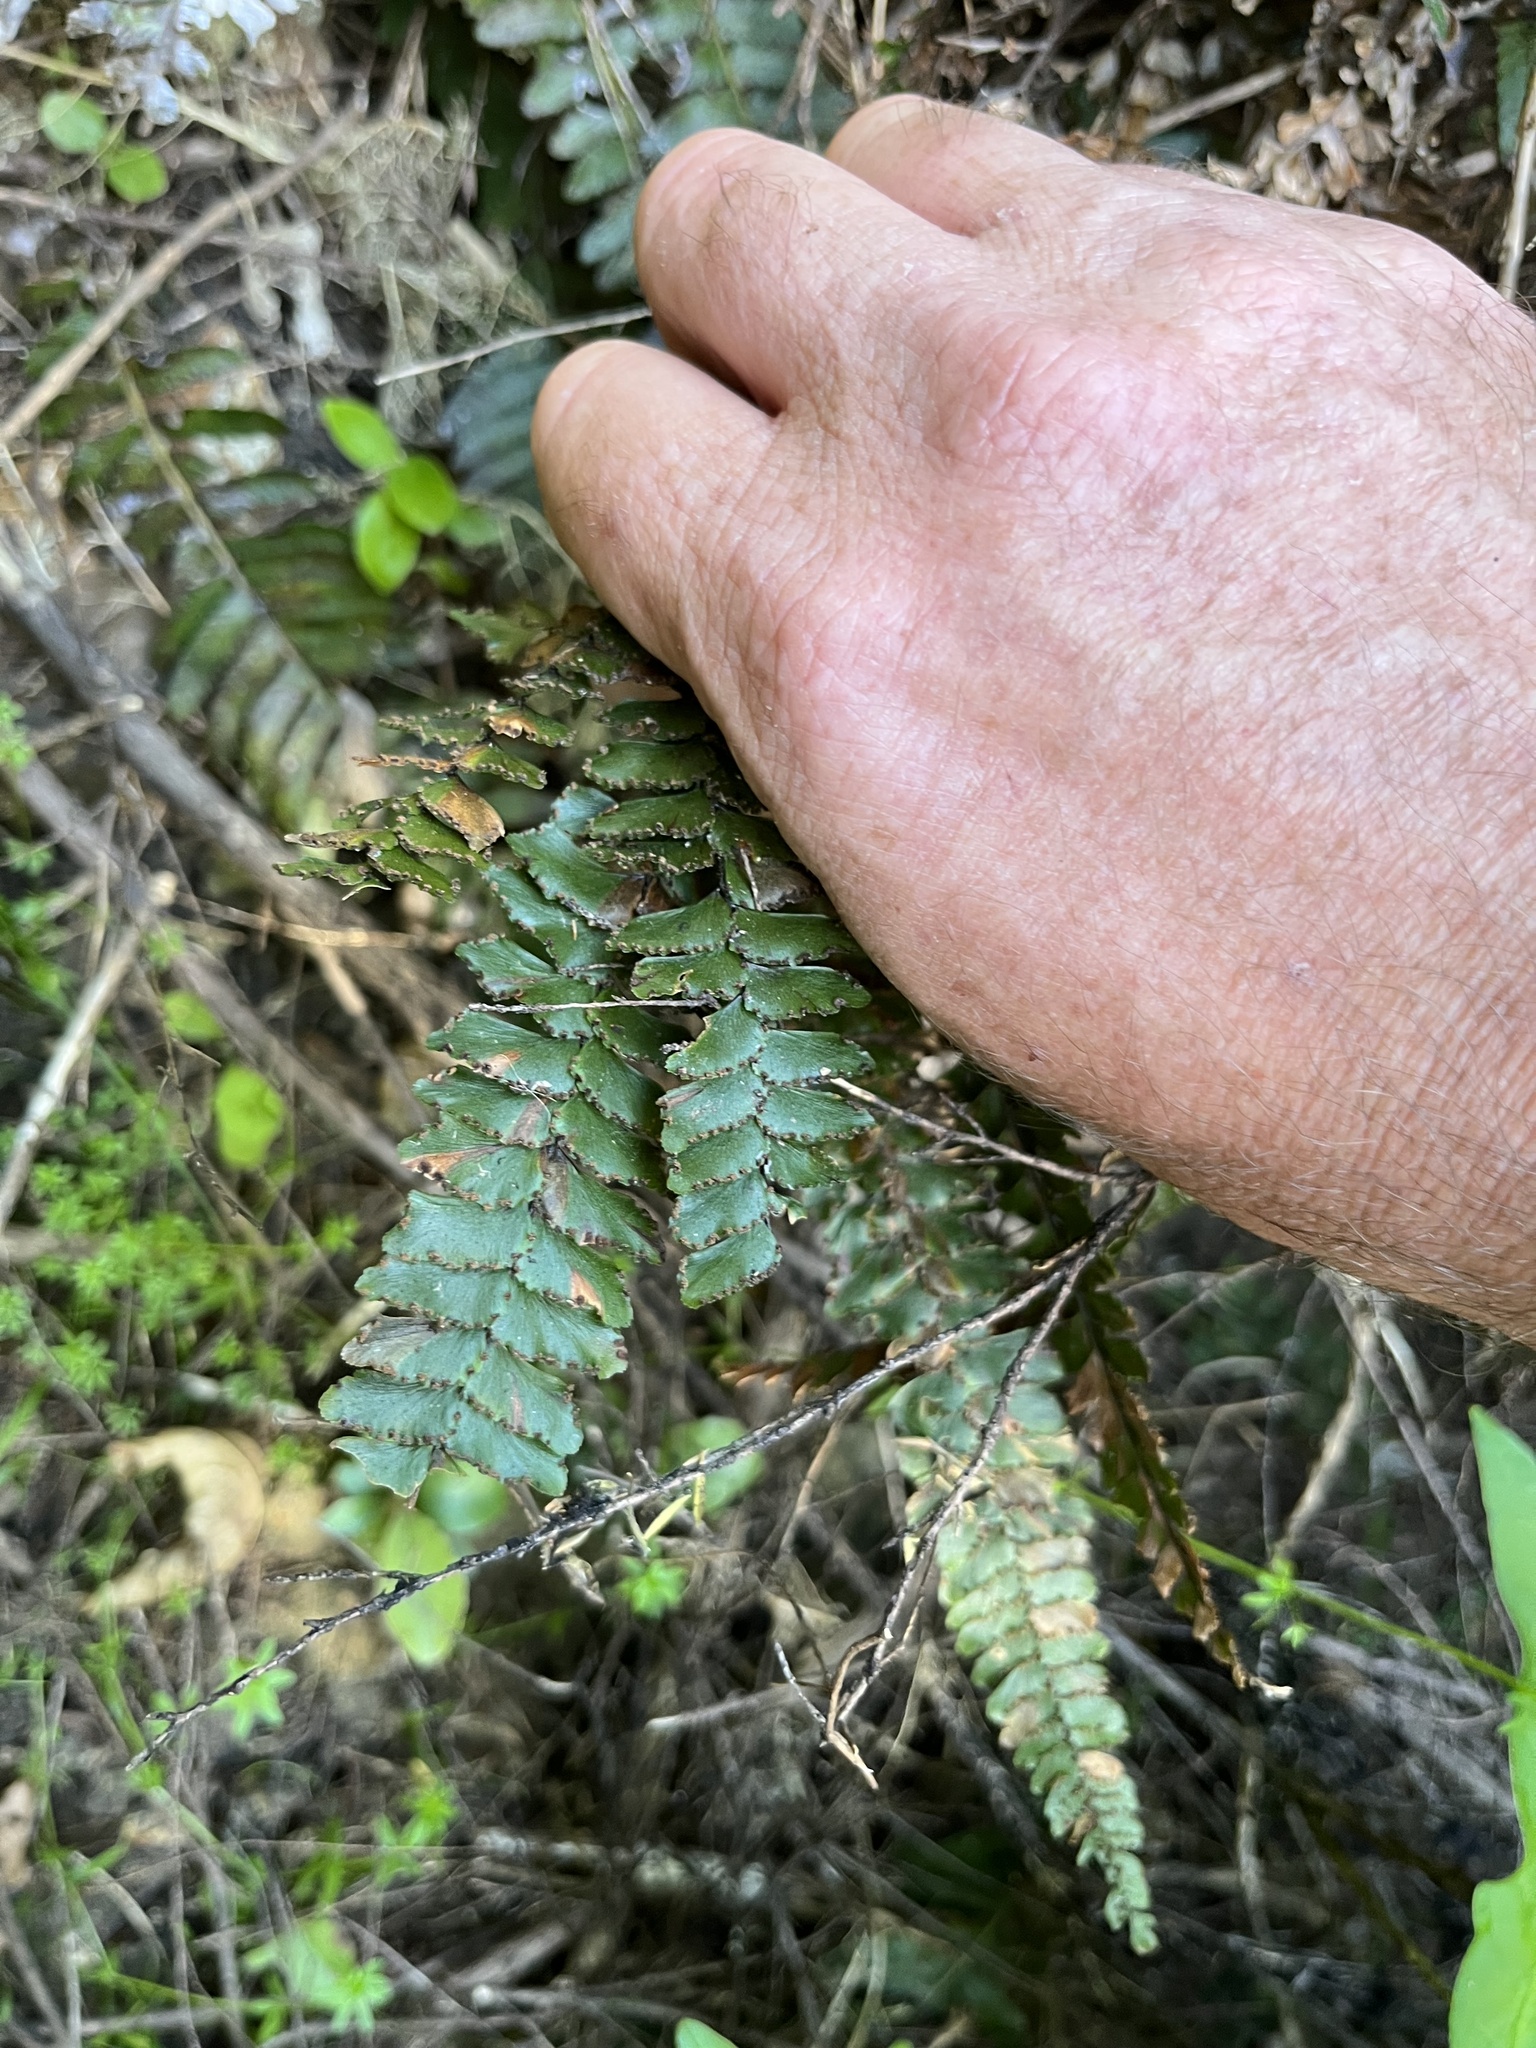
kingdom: Plantae
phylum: Tracheophyta
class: Polypodiopsida
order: Polypodiales
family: Pteridaceae
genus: Adiantum
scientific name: Adiantum hispidulum
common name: Rough maidenhair
